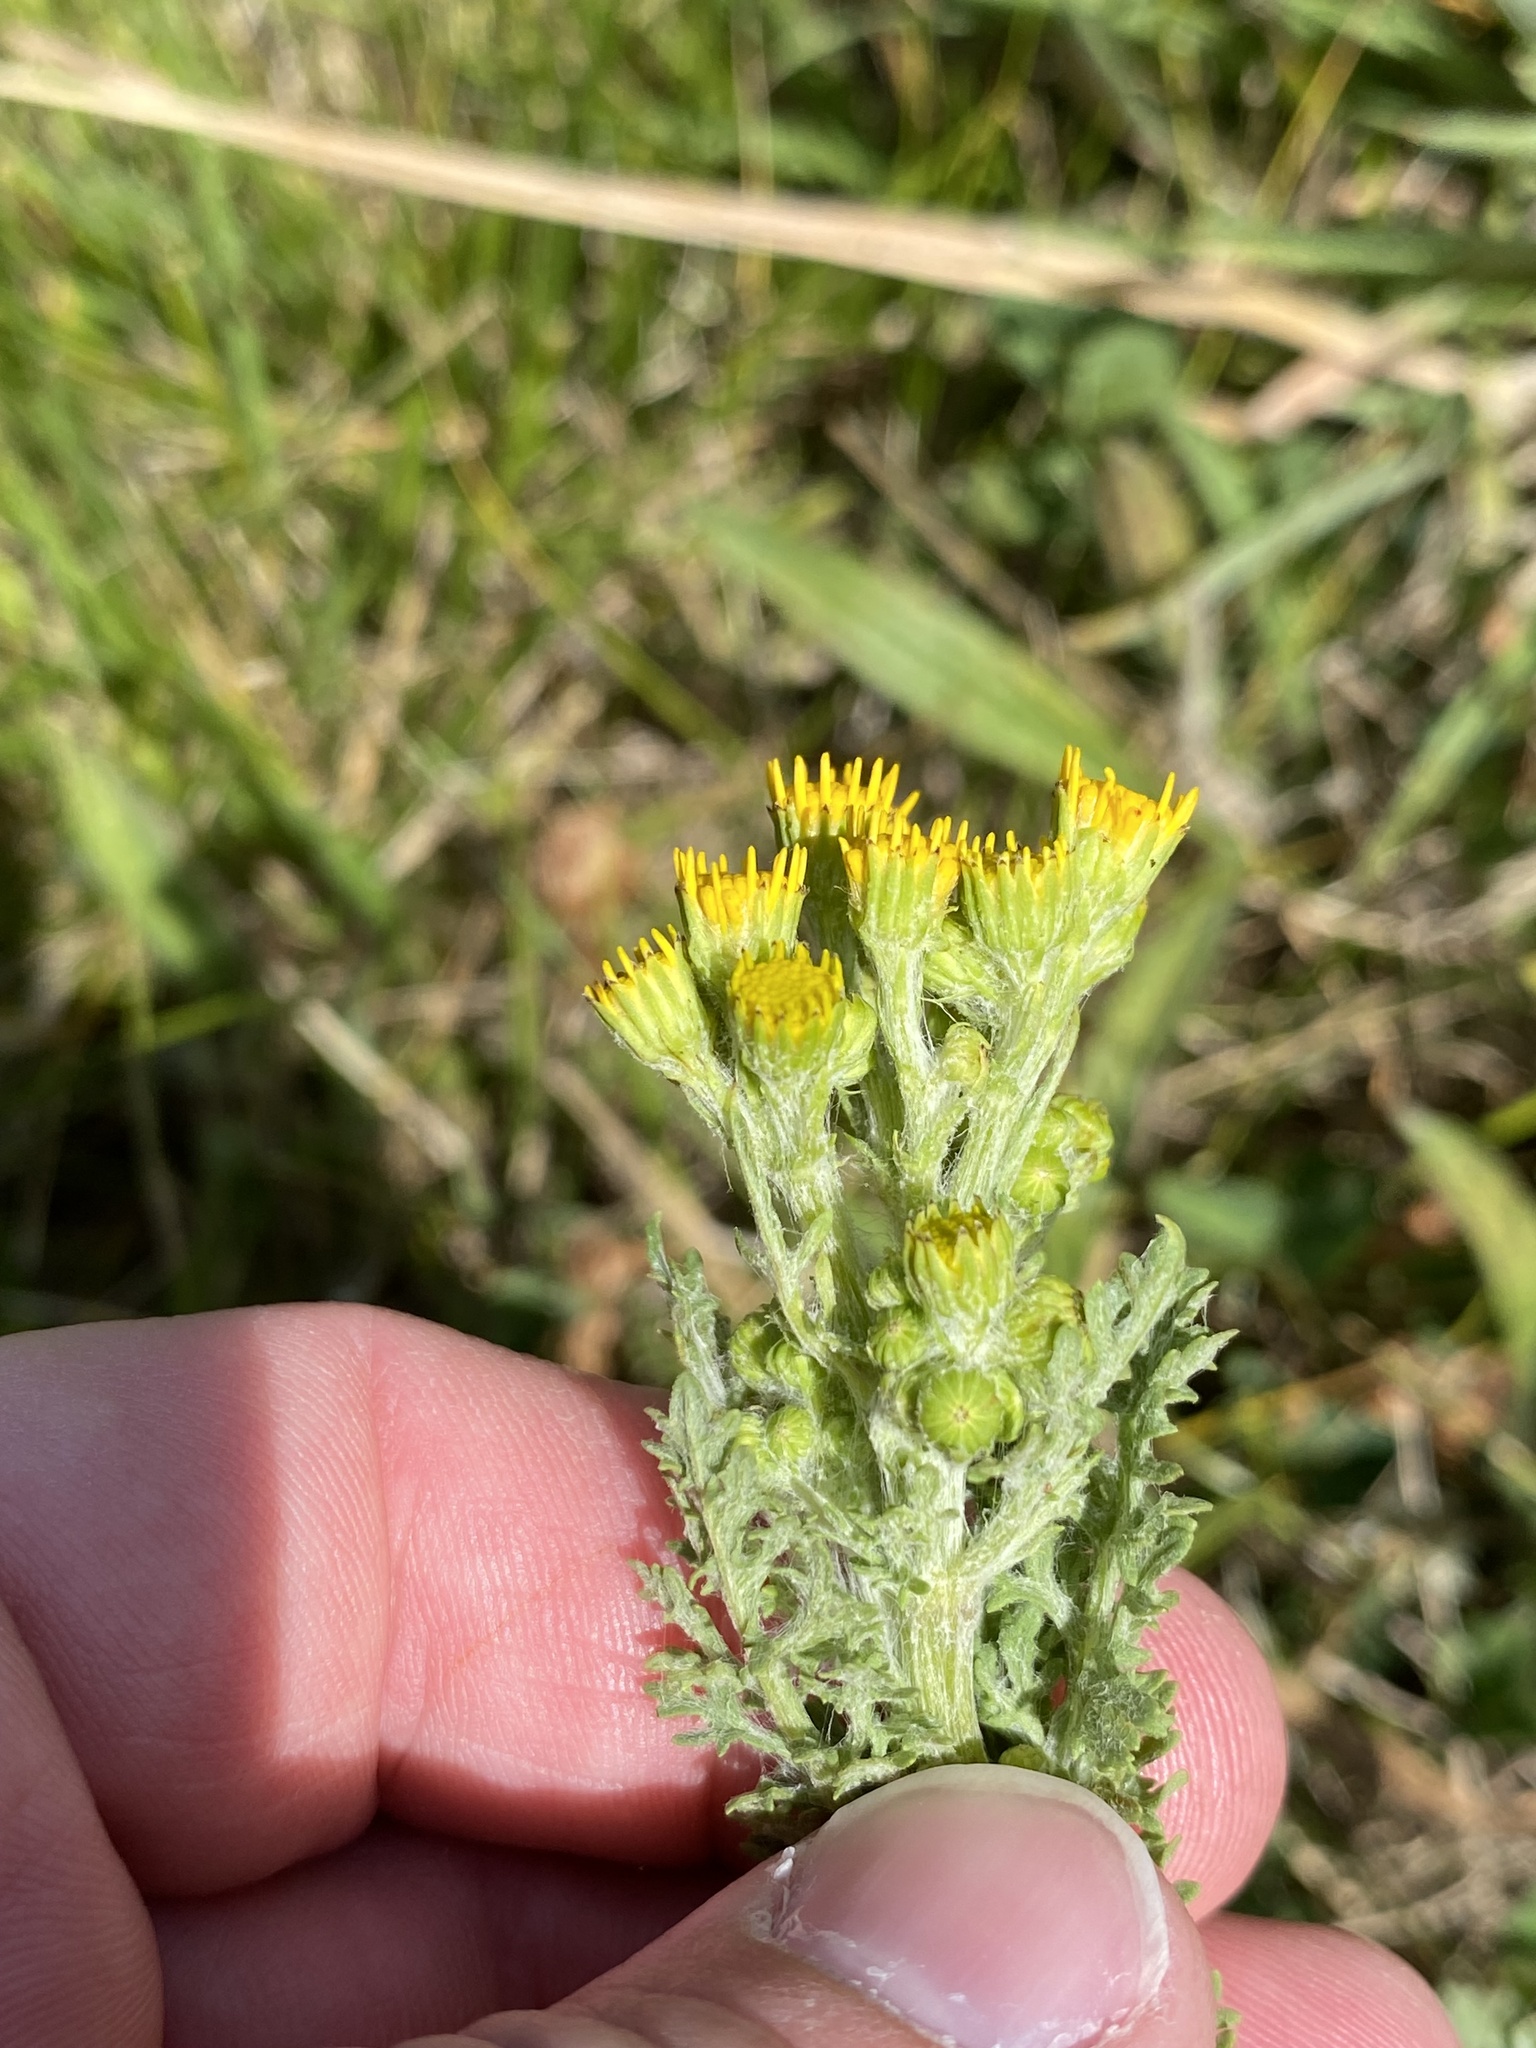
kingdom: Plantae
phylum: Tracheophyta
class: Magnoliopsida
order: Asterales
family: Asteraceae
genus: Jacobaea
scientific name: Jacobaea vulgaris
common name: Stinking willie
